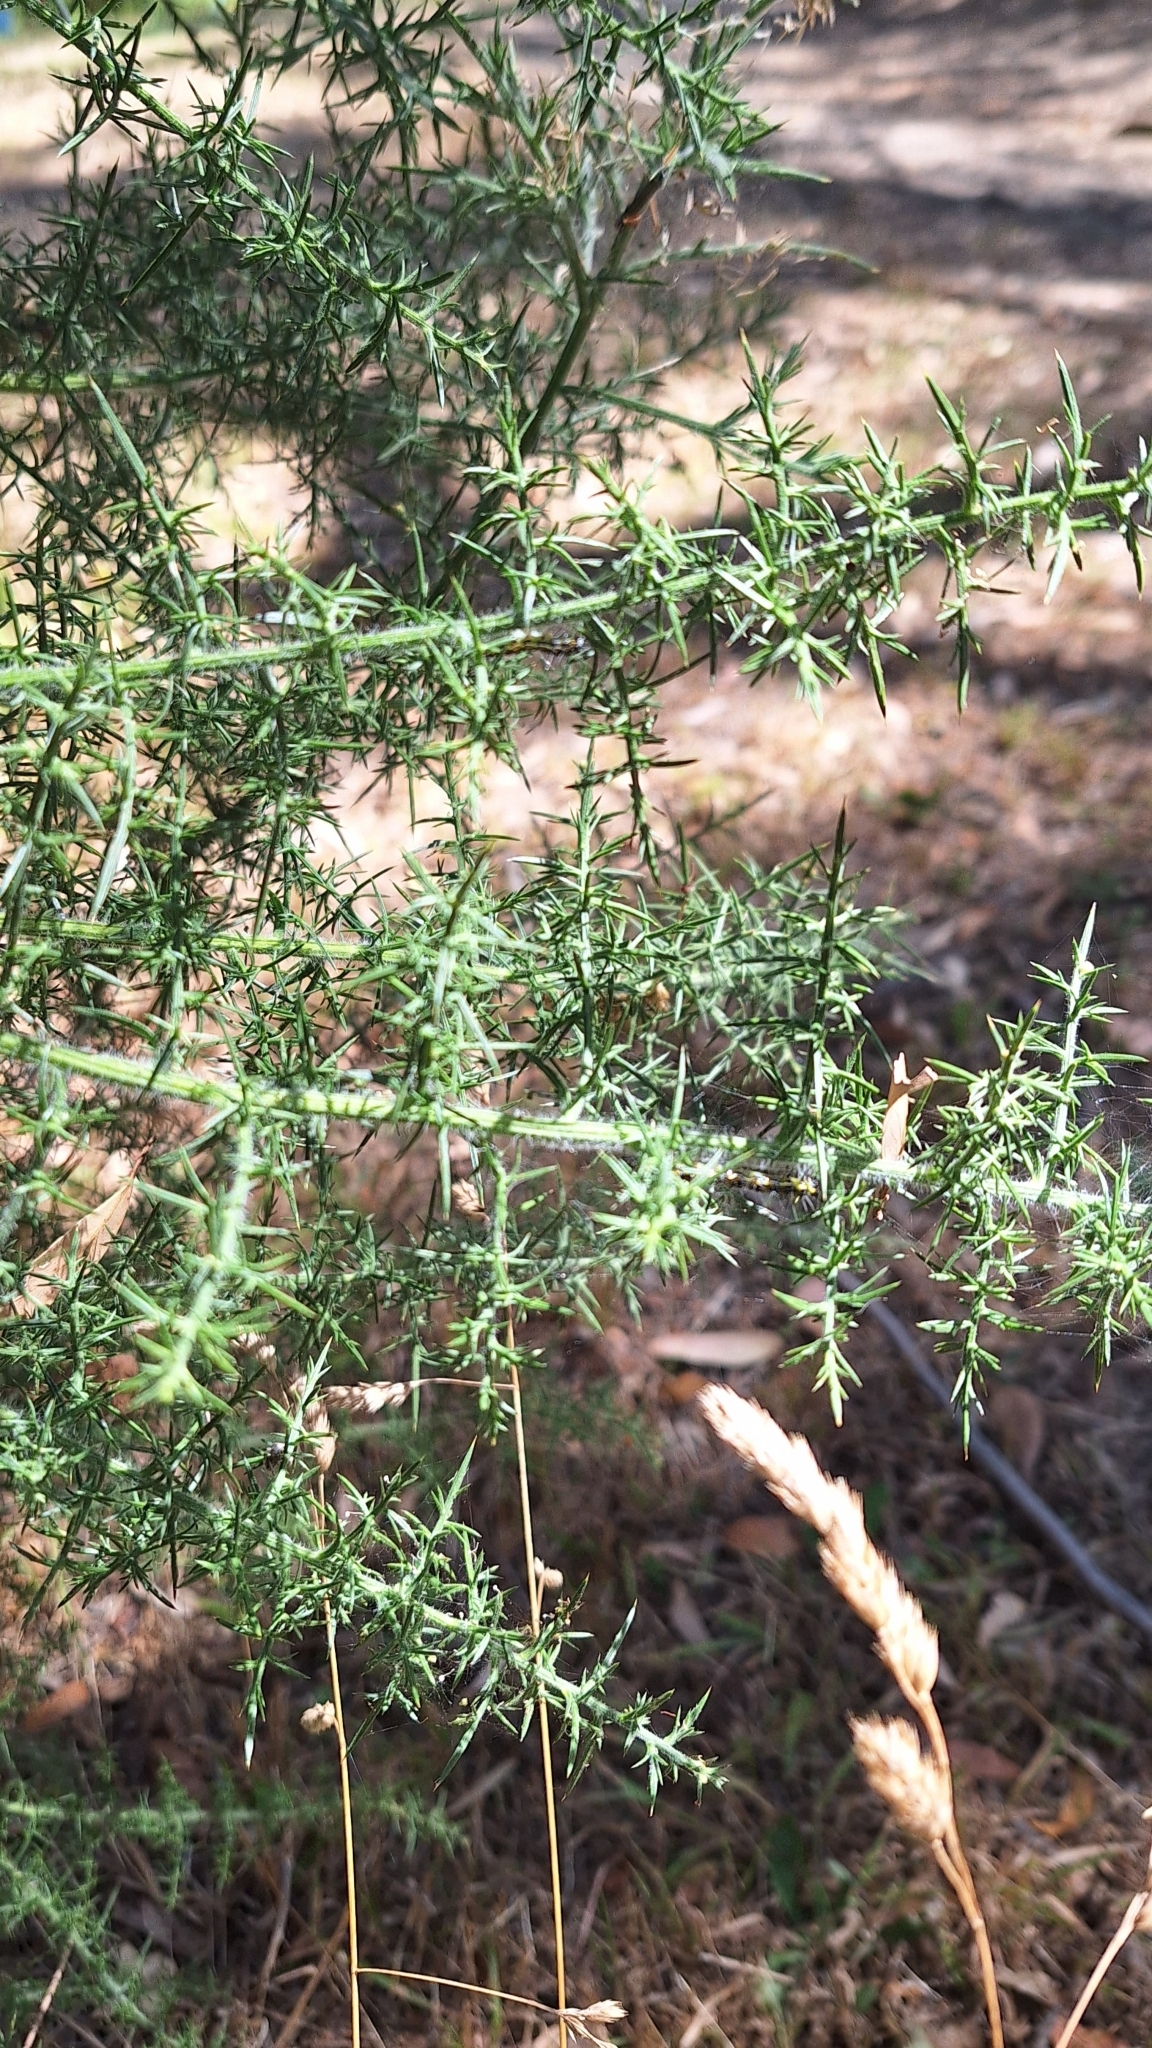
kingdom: Plantae
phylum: Tracheophyta
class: Magnoliopsida
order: Fabales
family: Fabaceae
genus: Ulex
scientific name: Ulex europaeus
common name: Common gorse
